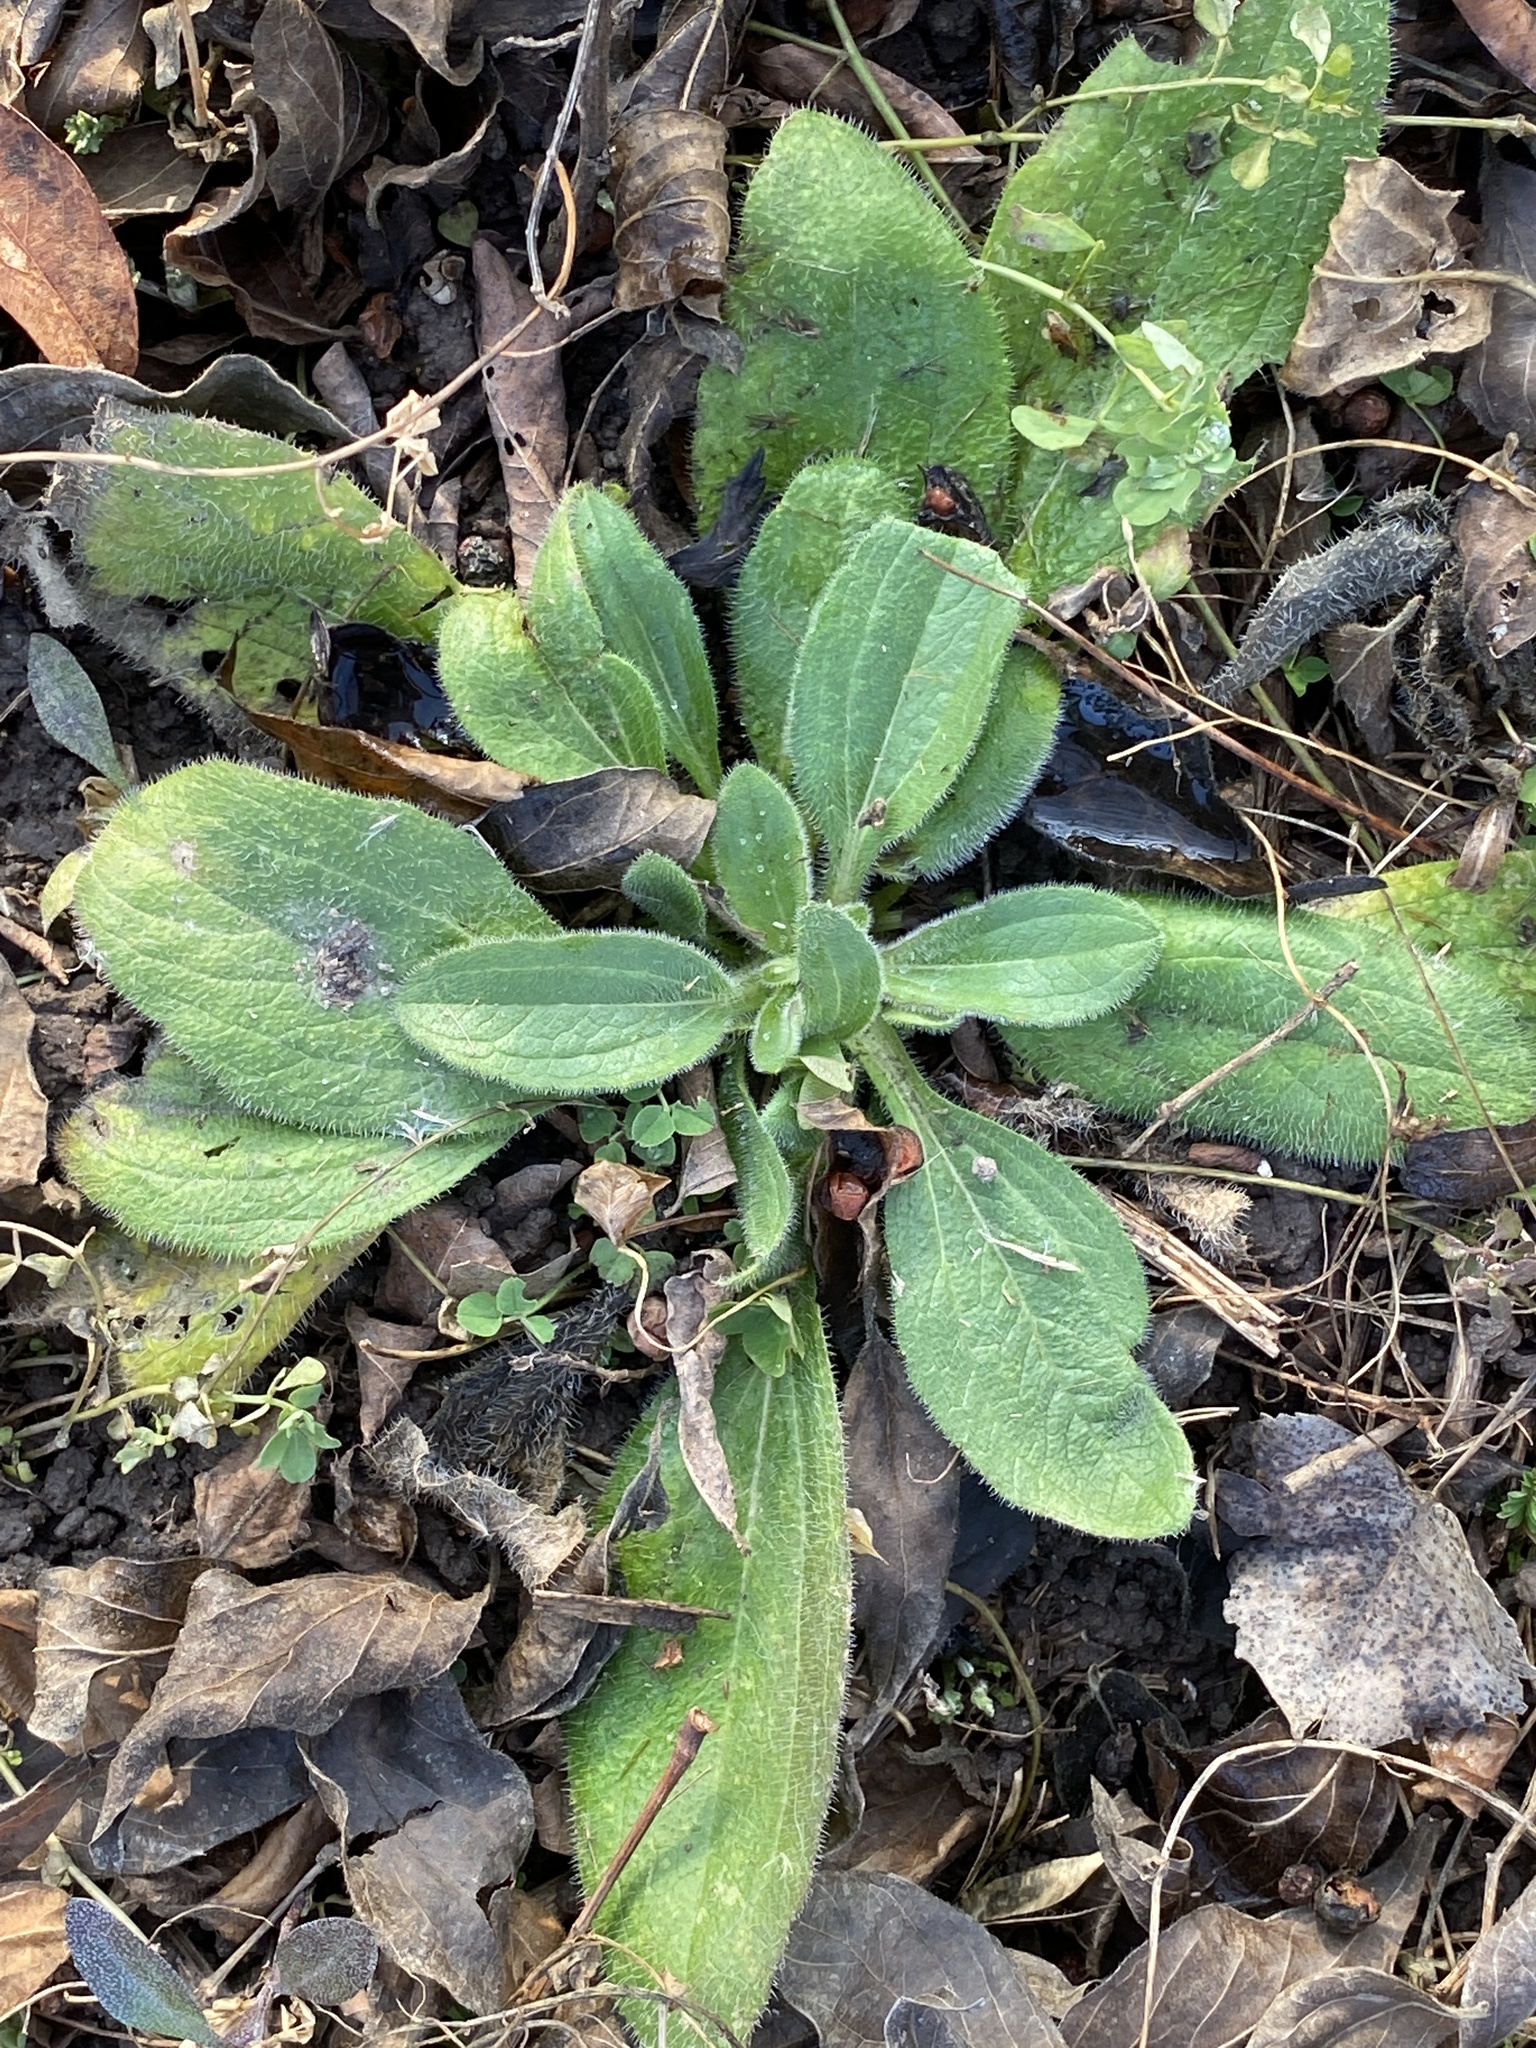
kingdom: Plantae
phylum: Tracheophyta
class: Magnoliopsida
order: Asterales
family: Asteraceae
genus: Rudbeckia
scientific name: Rudbeckia hirta
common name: Black-eyed-susan
